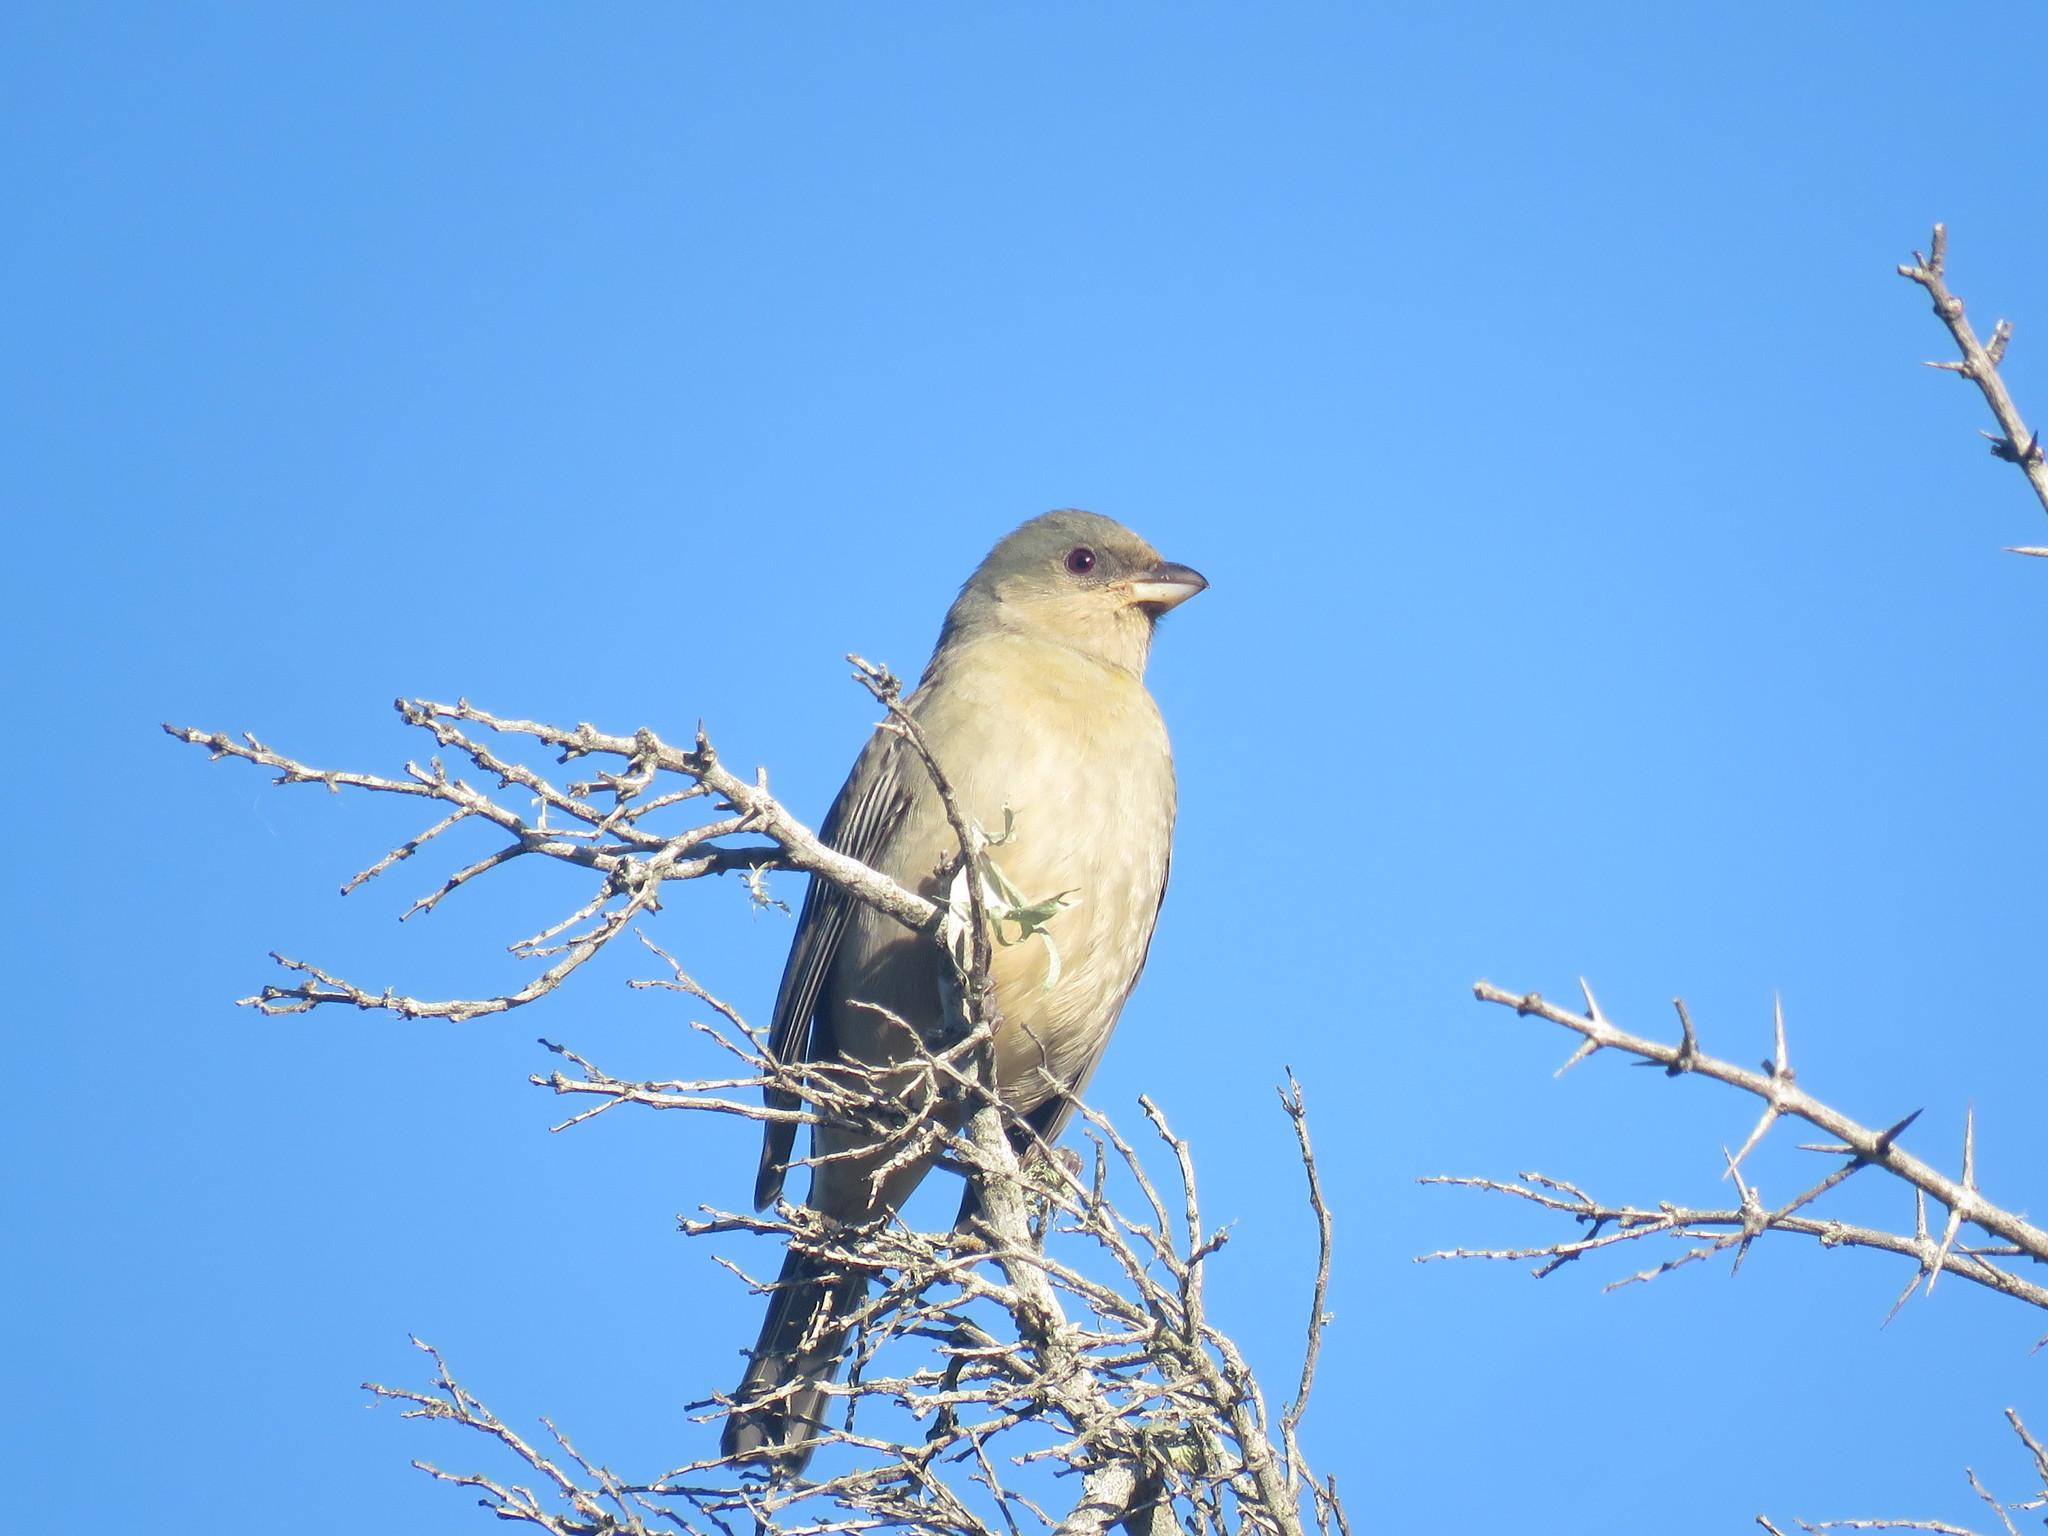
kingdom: Animalia
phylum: Chordata
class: Aves
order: Passeriformes
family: Thraupidae
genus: Rauenia
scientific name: Rauenia bonariensis
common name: Blue-and-yellow tanager
